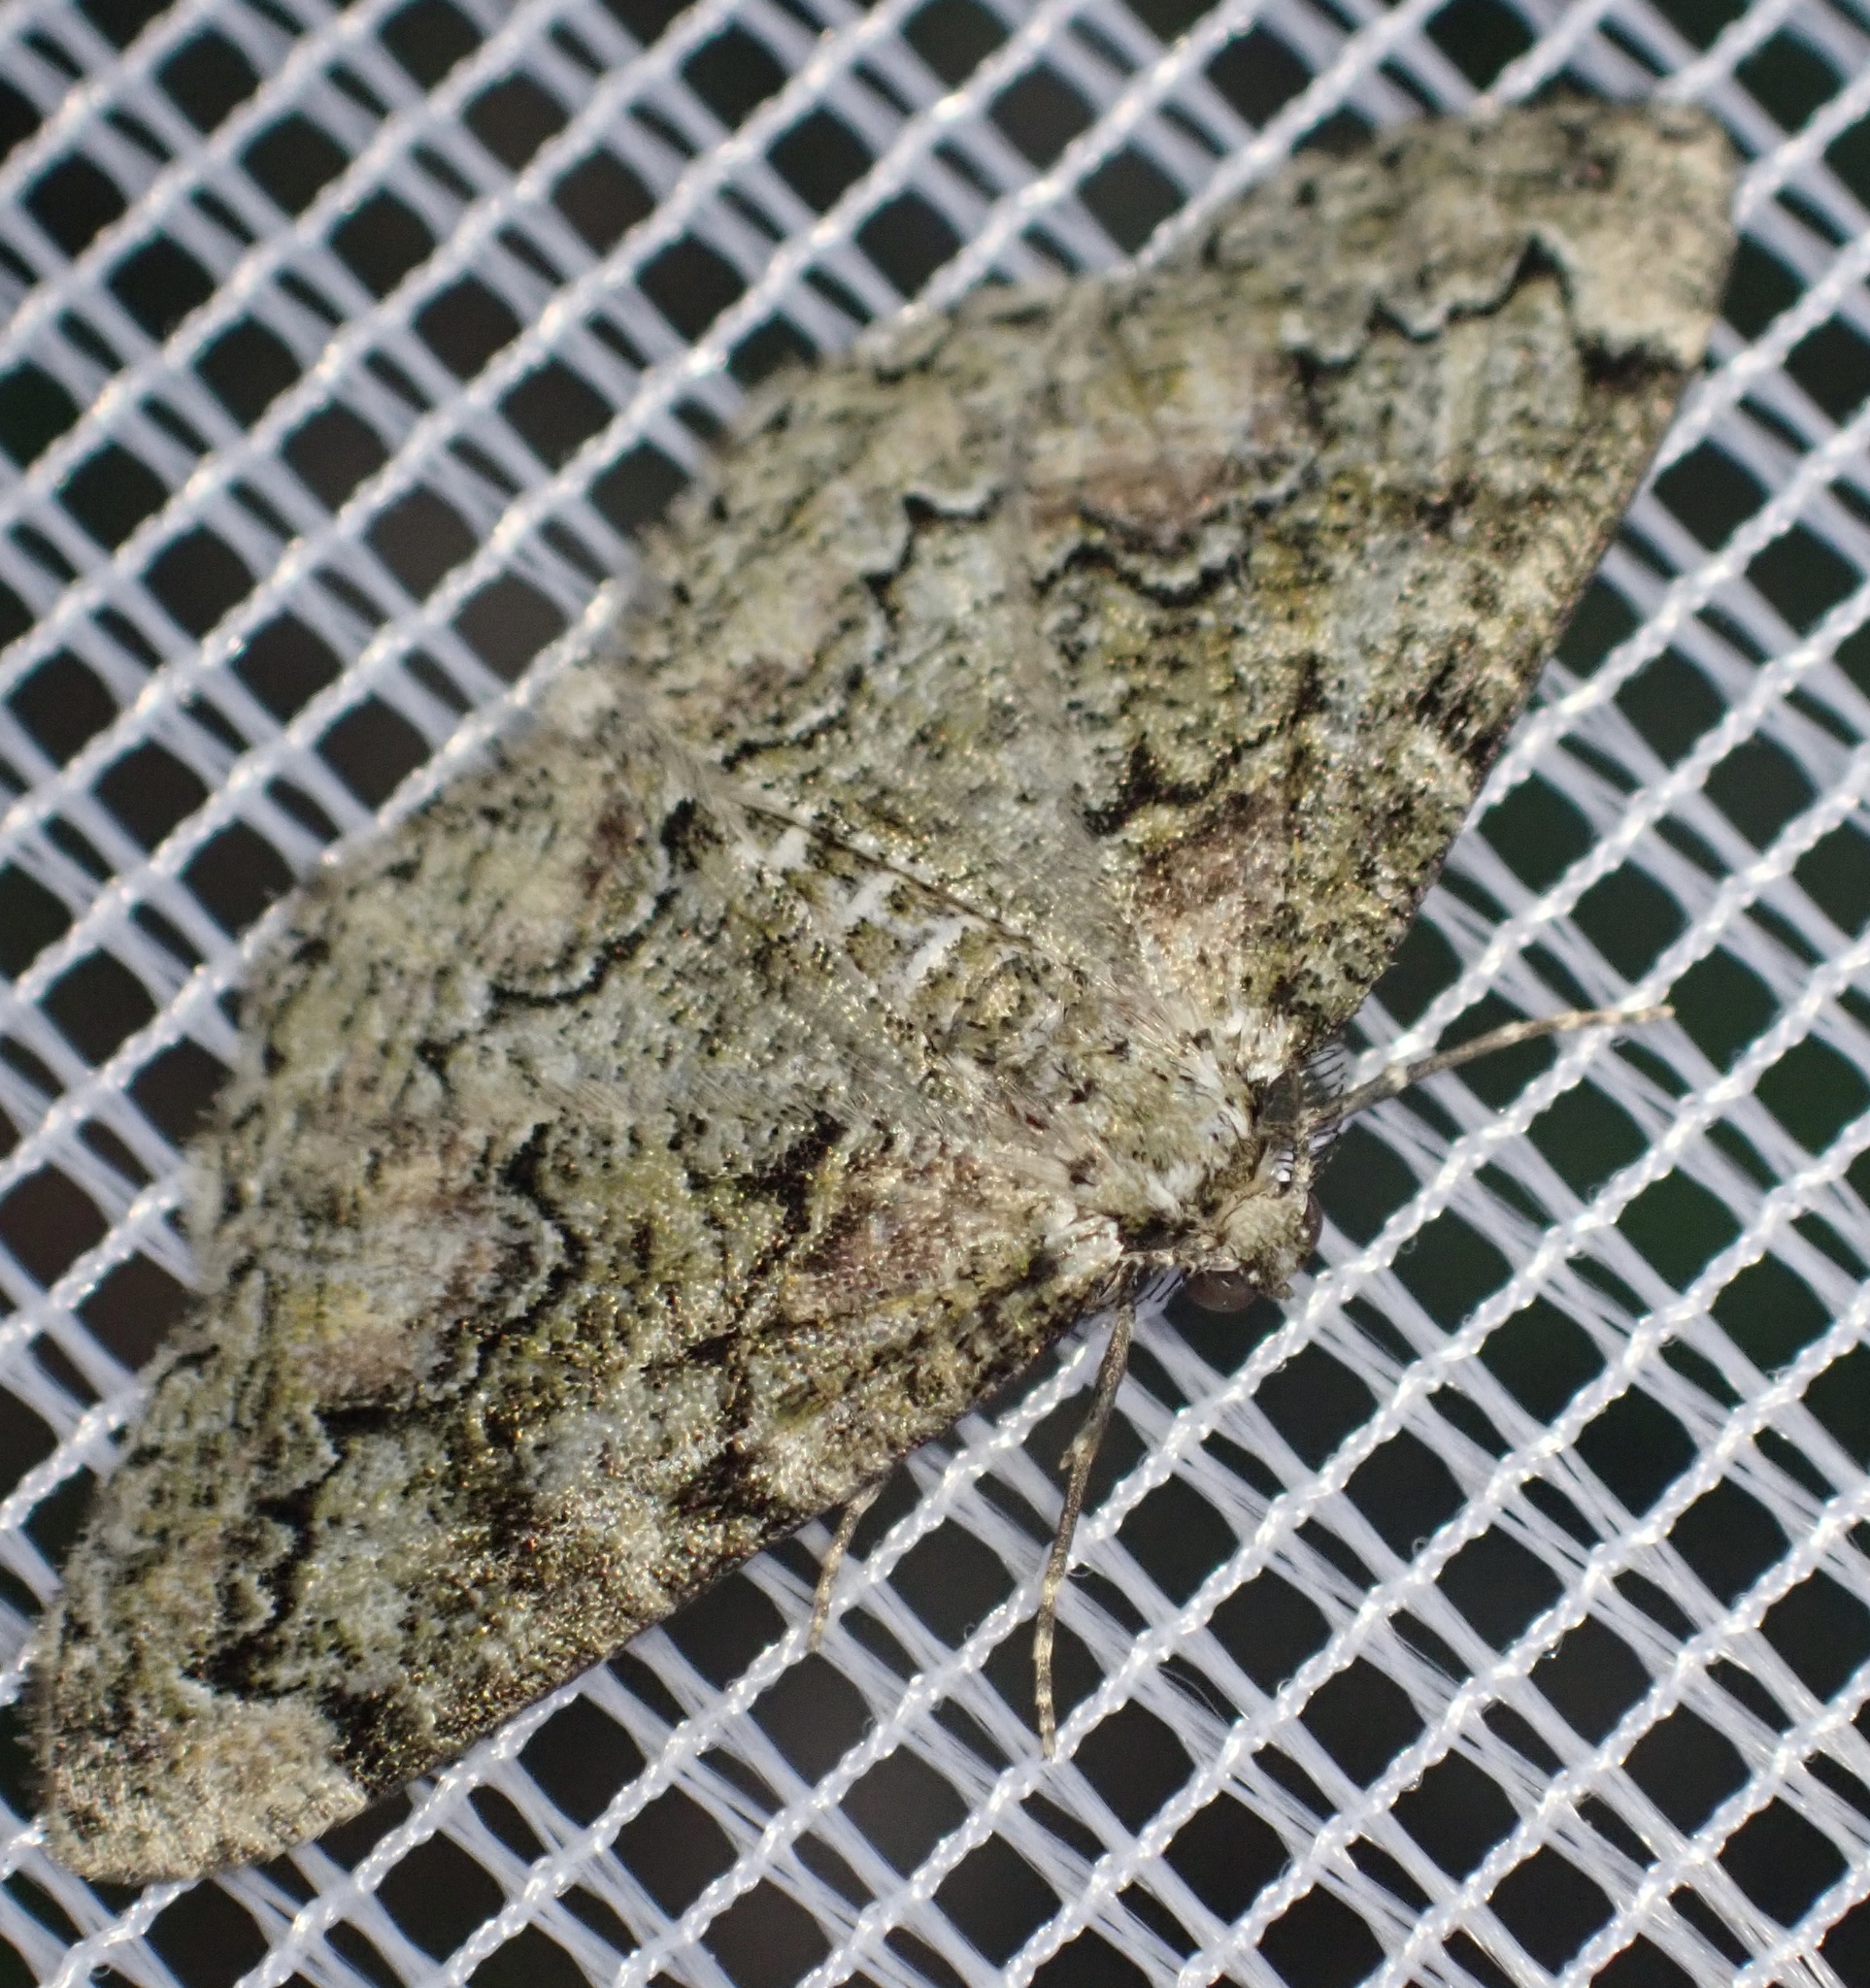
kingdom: Animalia
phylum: Arthropoda
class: Insecta
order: Lepidoptera
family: Geometridae
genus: Cleorodes
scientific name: Cleorodes lichenaria
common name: Brussels lace
